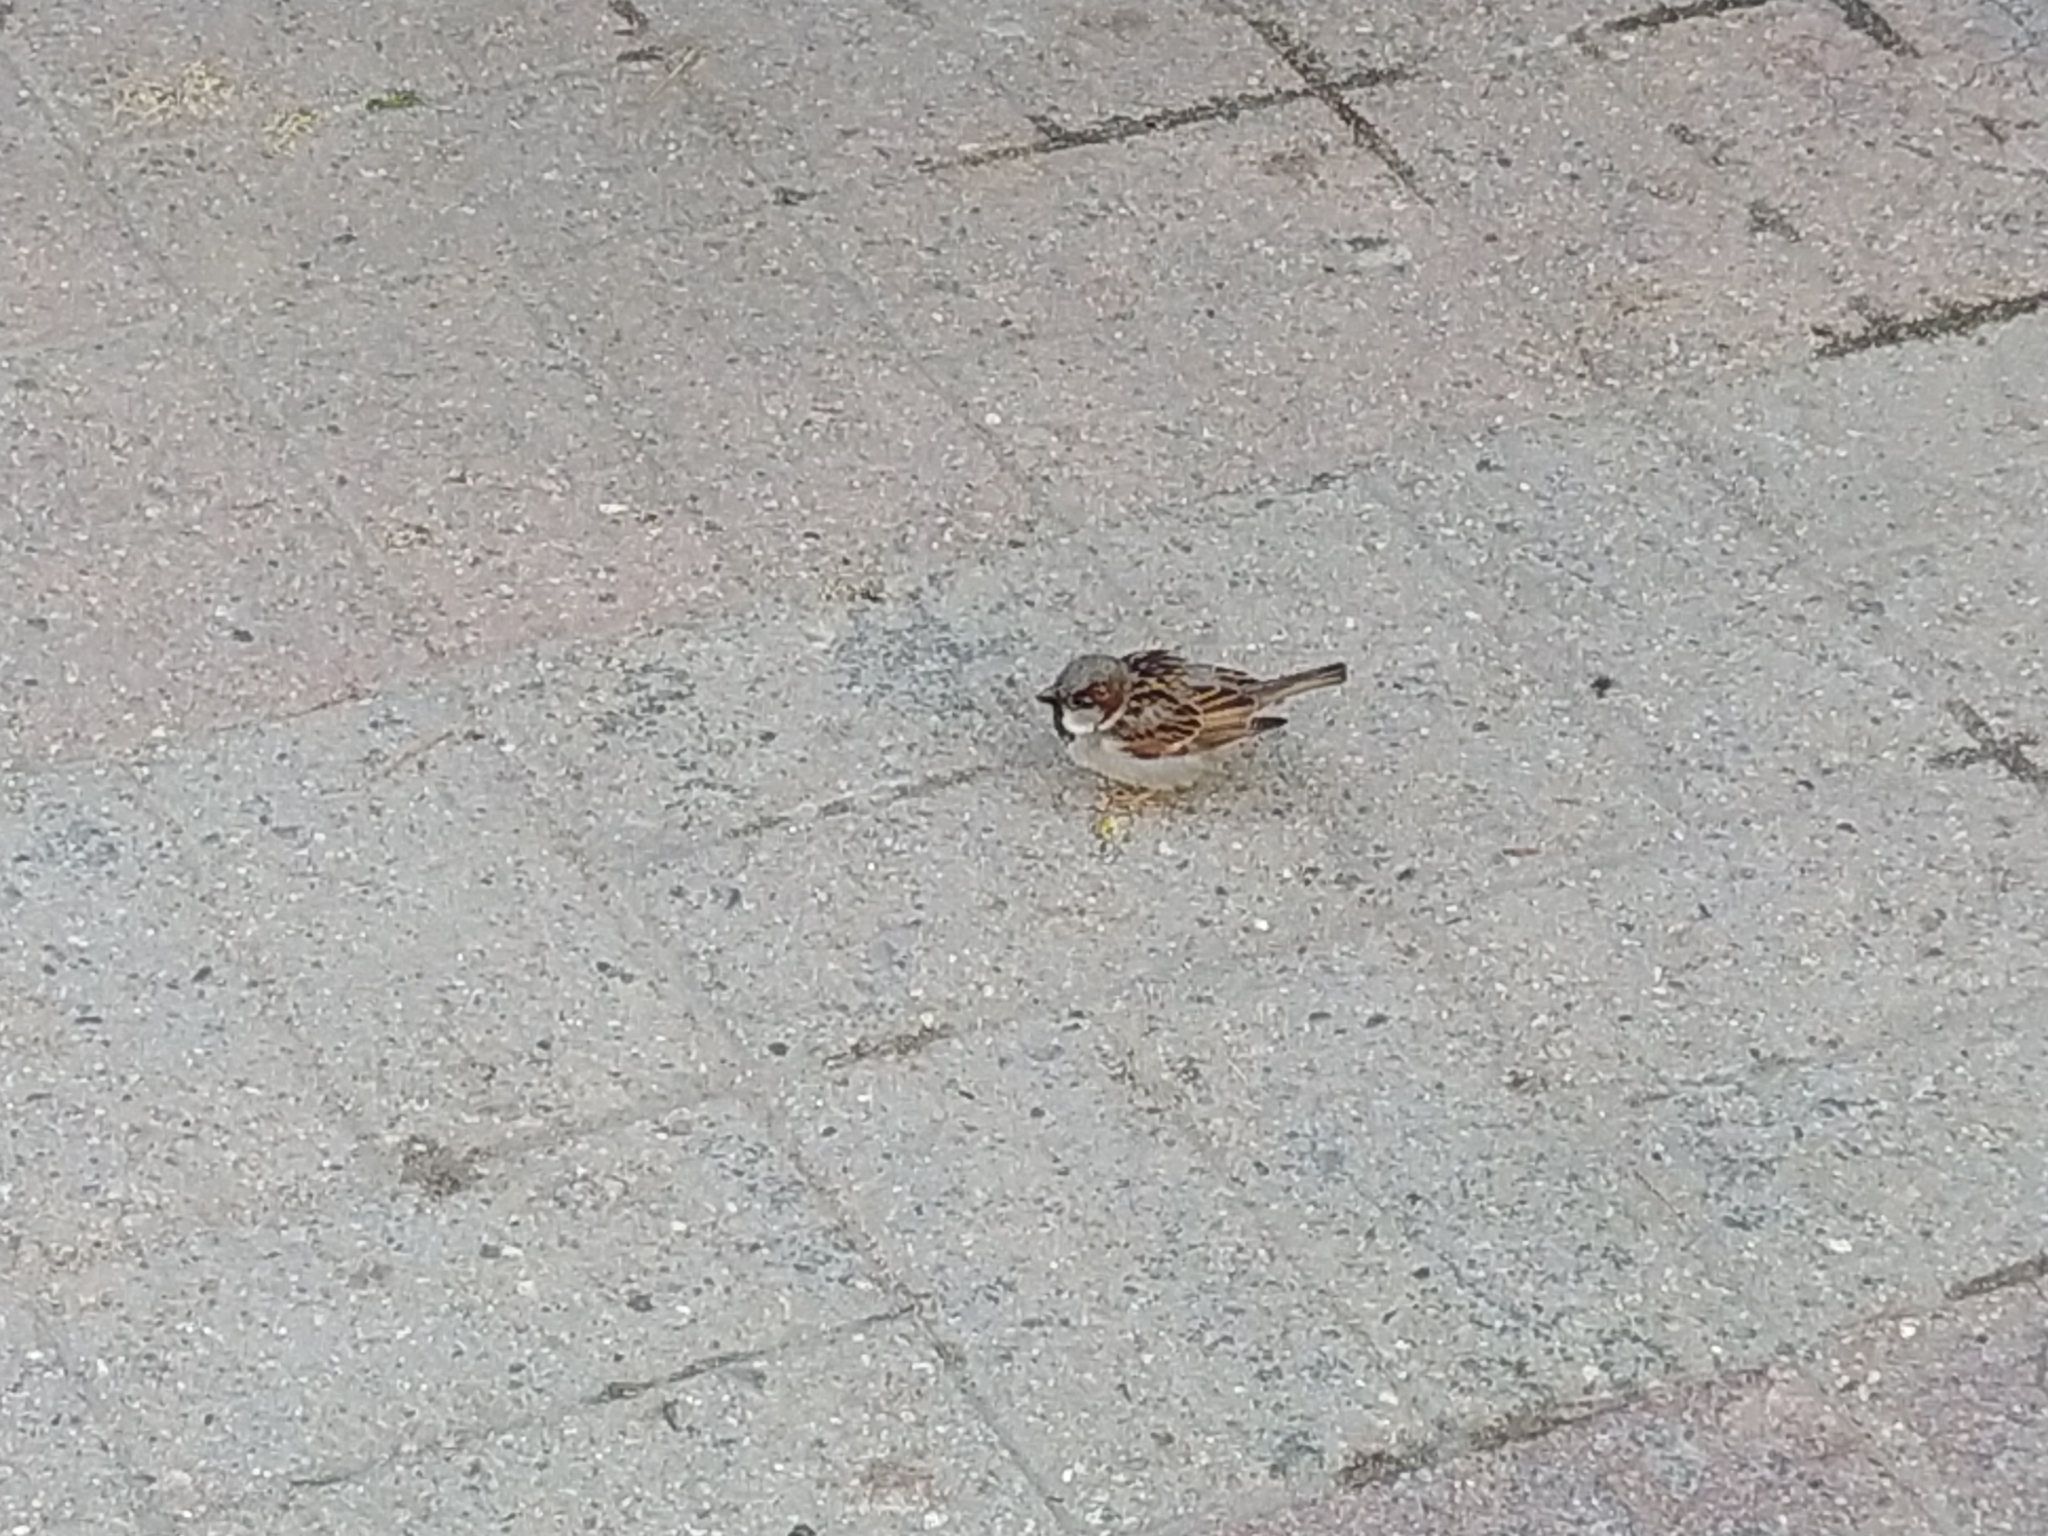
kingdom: Animalia
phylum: Chordata
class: Aves
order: Passeriformes
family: Passeridae
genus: Passer
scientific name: Passer domesticus
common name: House sparrow
